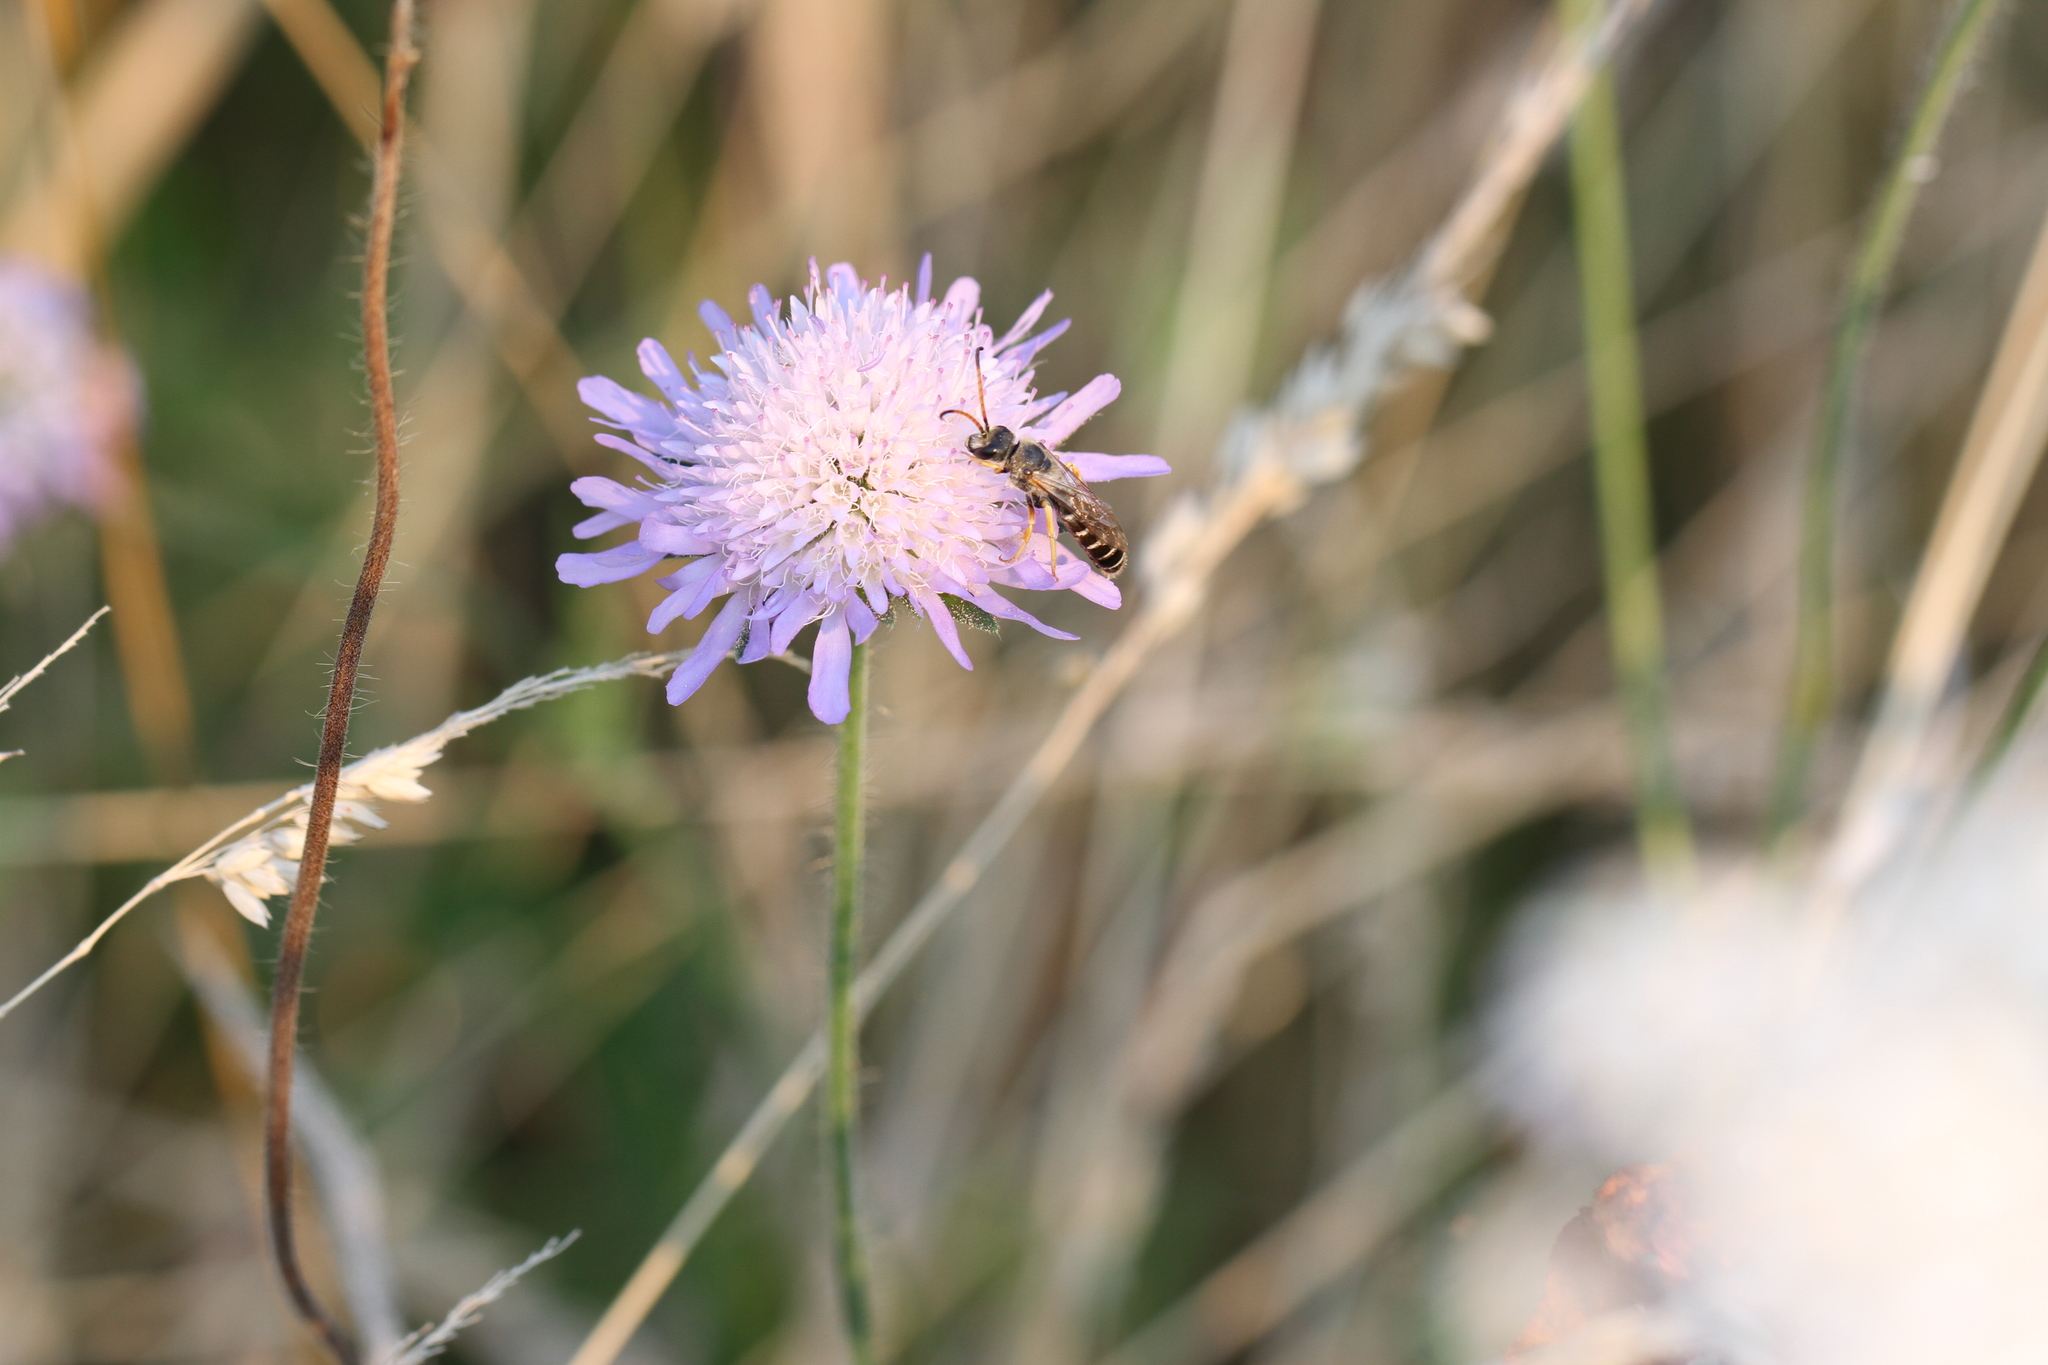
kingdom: Animalia
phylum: Arthropoda
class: Insecta
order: Hymenoptera
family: Halictidae
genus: Halictus
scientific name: Halictus sexcinctus
